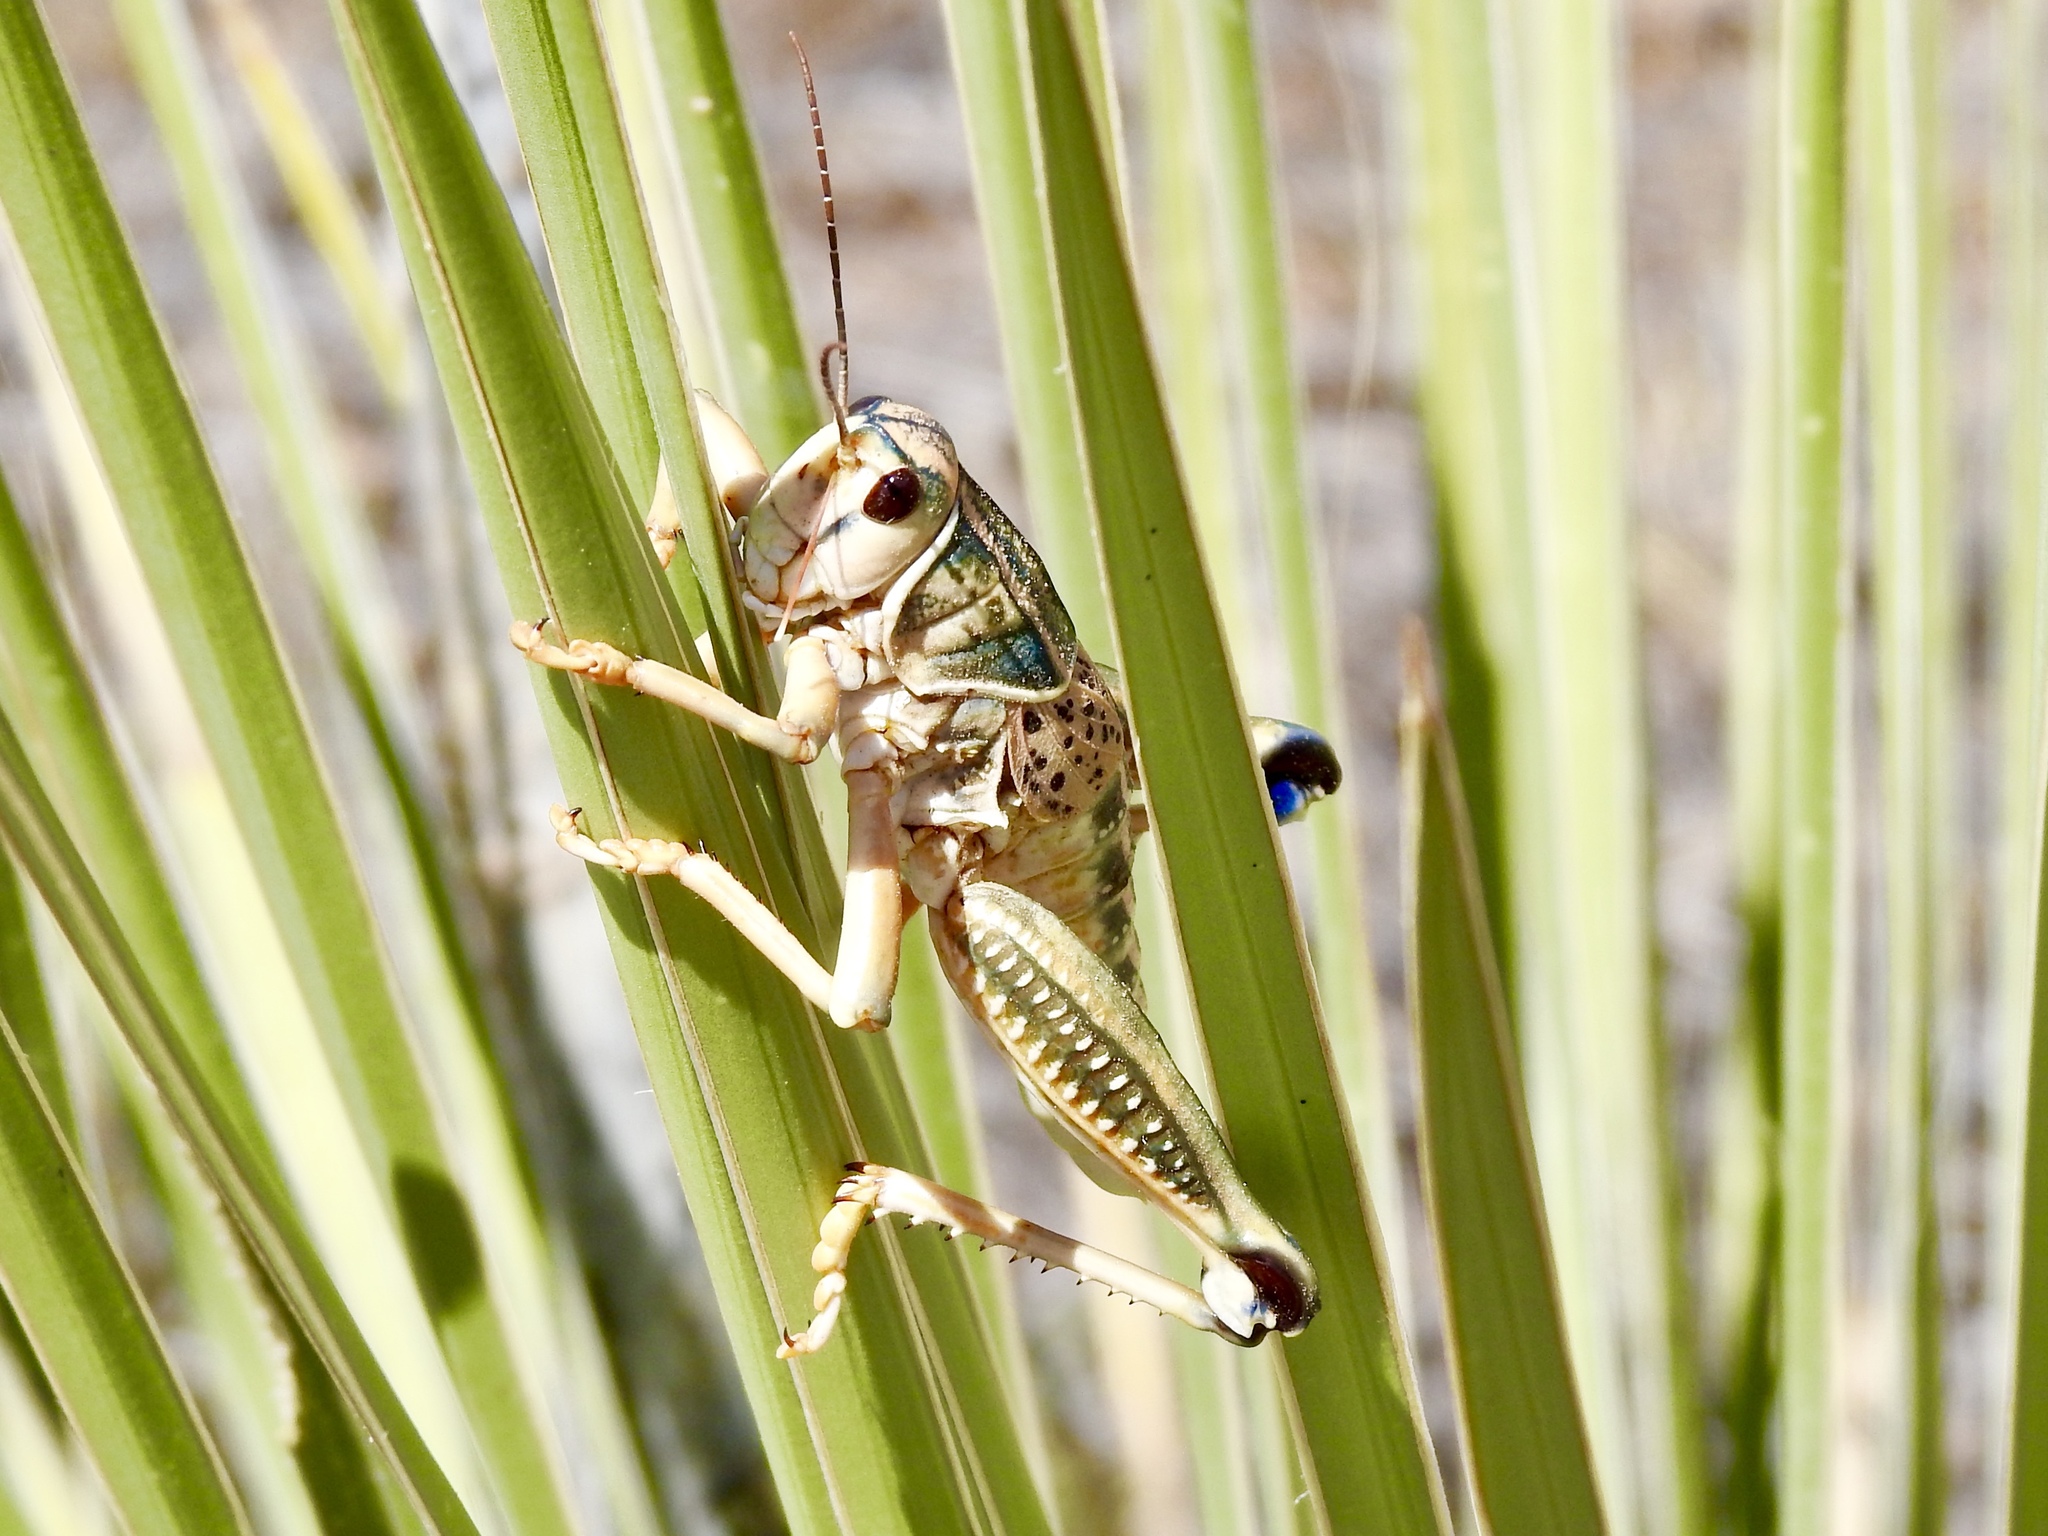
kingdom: Animalia
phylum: Arthropoda
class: Insecta
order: Orthoptera
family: Romaleidae
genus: Brachystola
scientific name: Brachystola magna
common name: Plains lubber grasshopper
